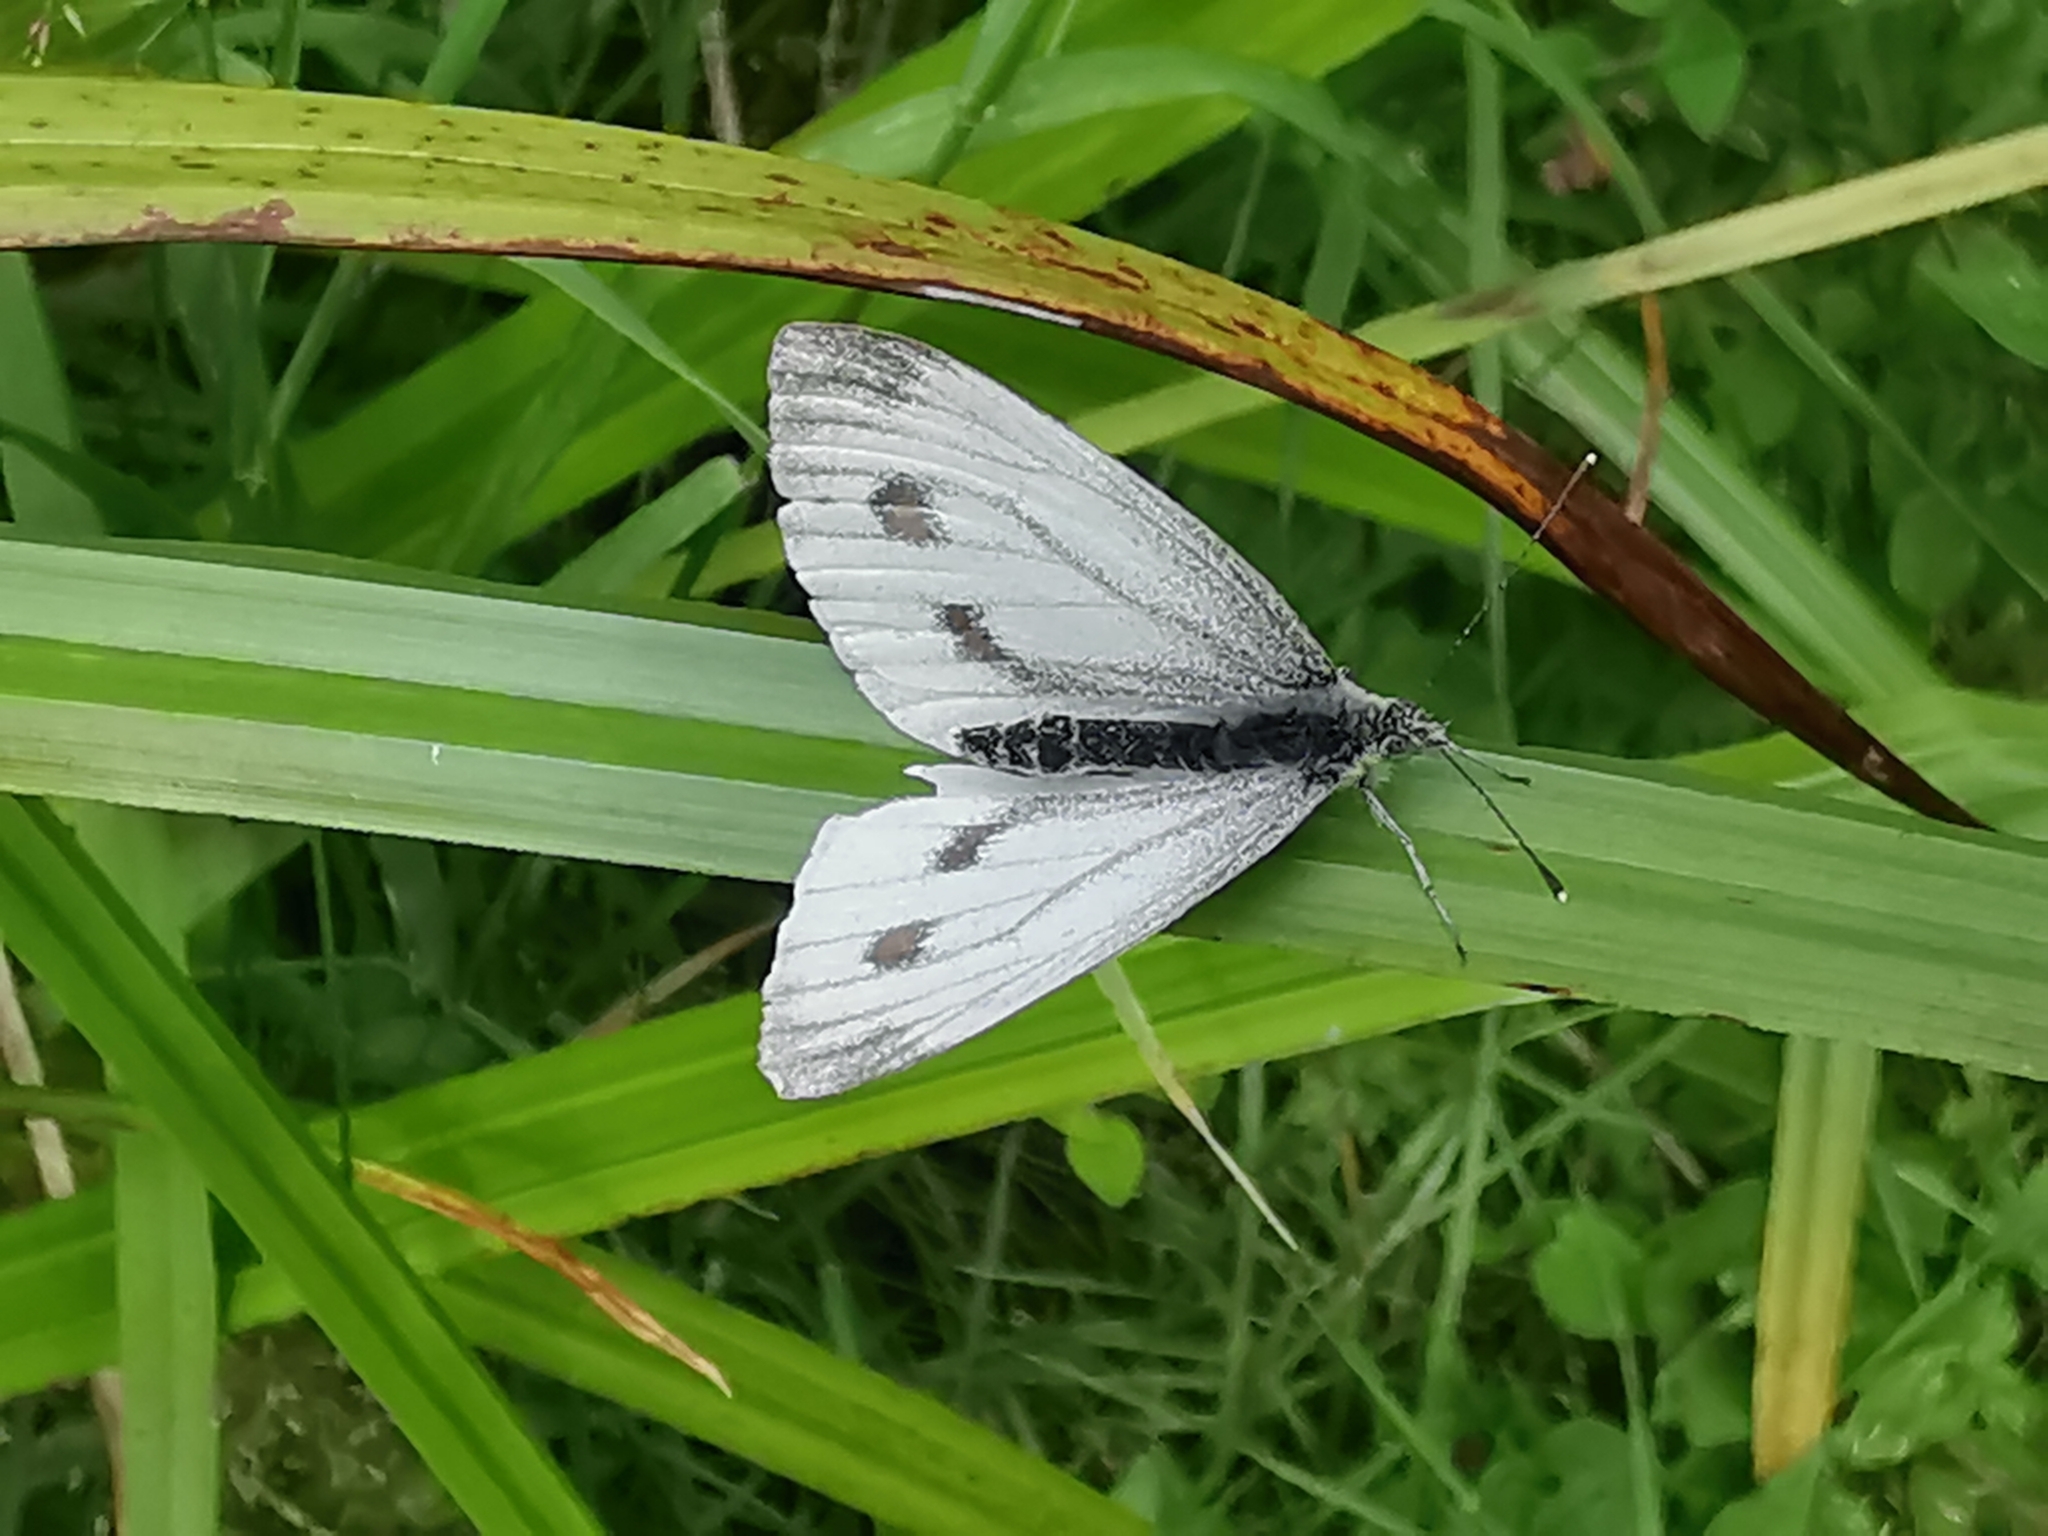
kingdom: Animalia
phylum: Arthropoda
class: Insecta
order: Lepidoptera
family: Pieridae
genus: Pieris
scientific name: Pieris napi
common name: Green-veined white
